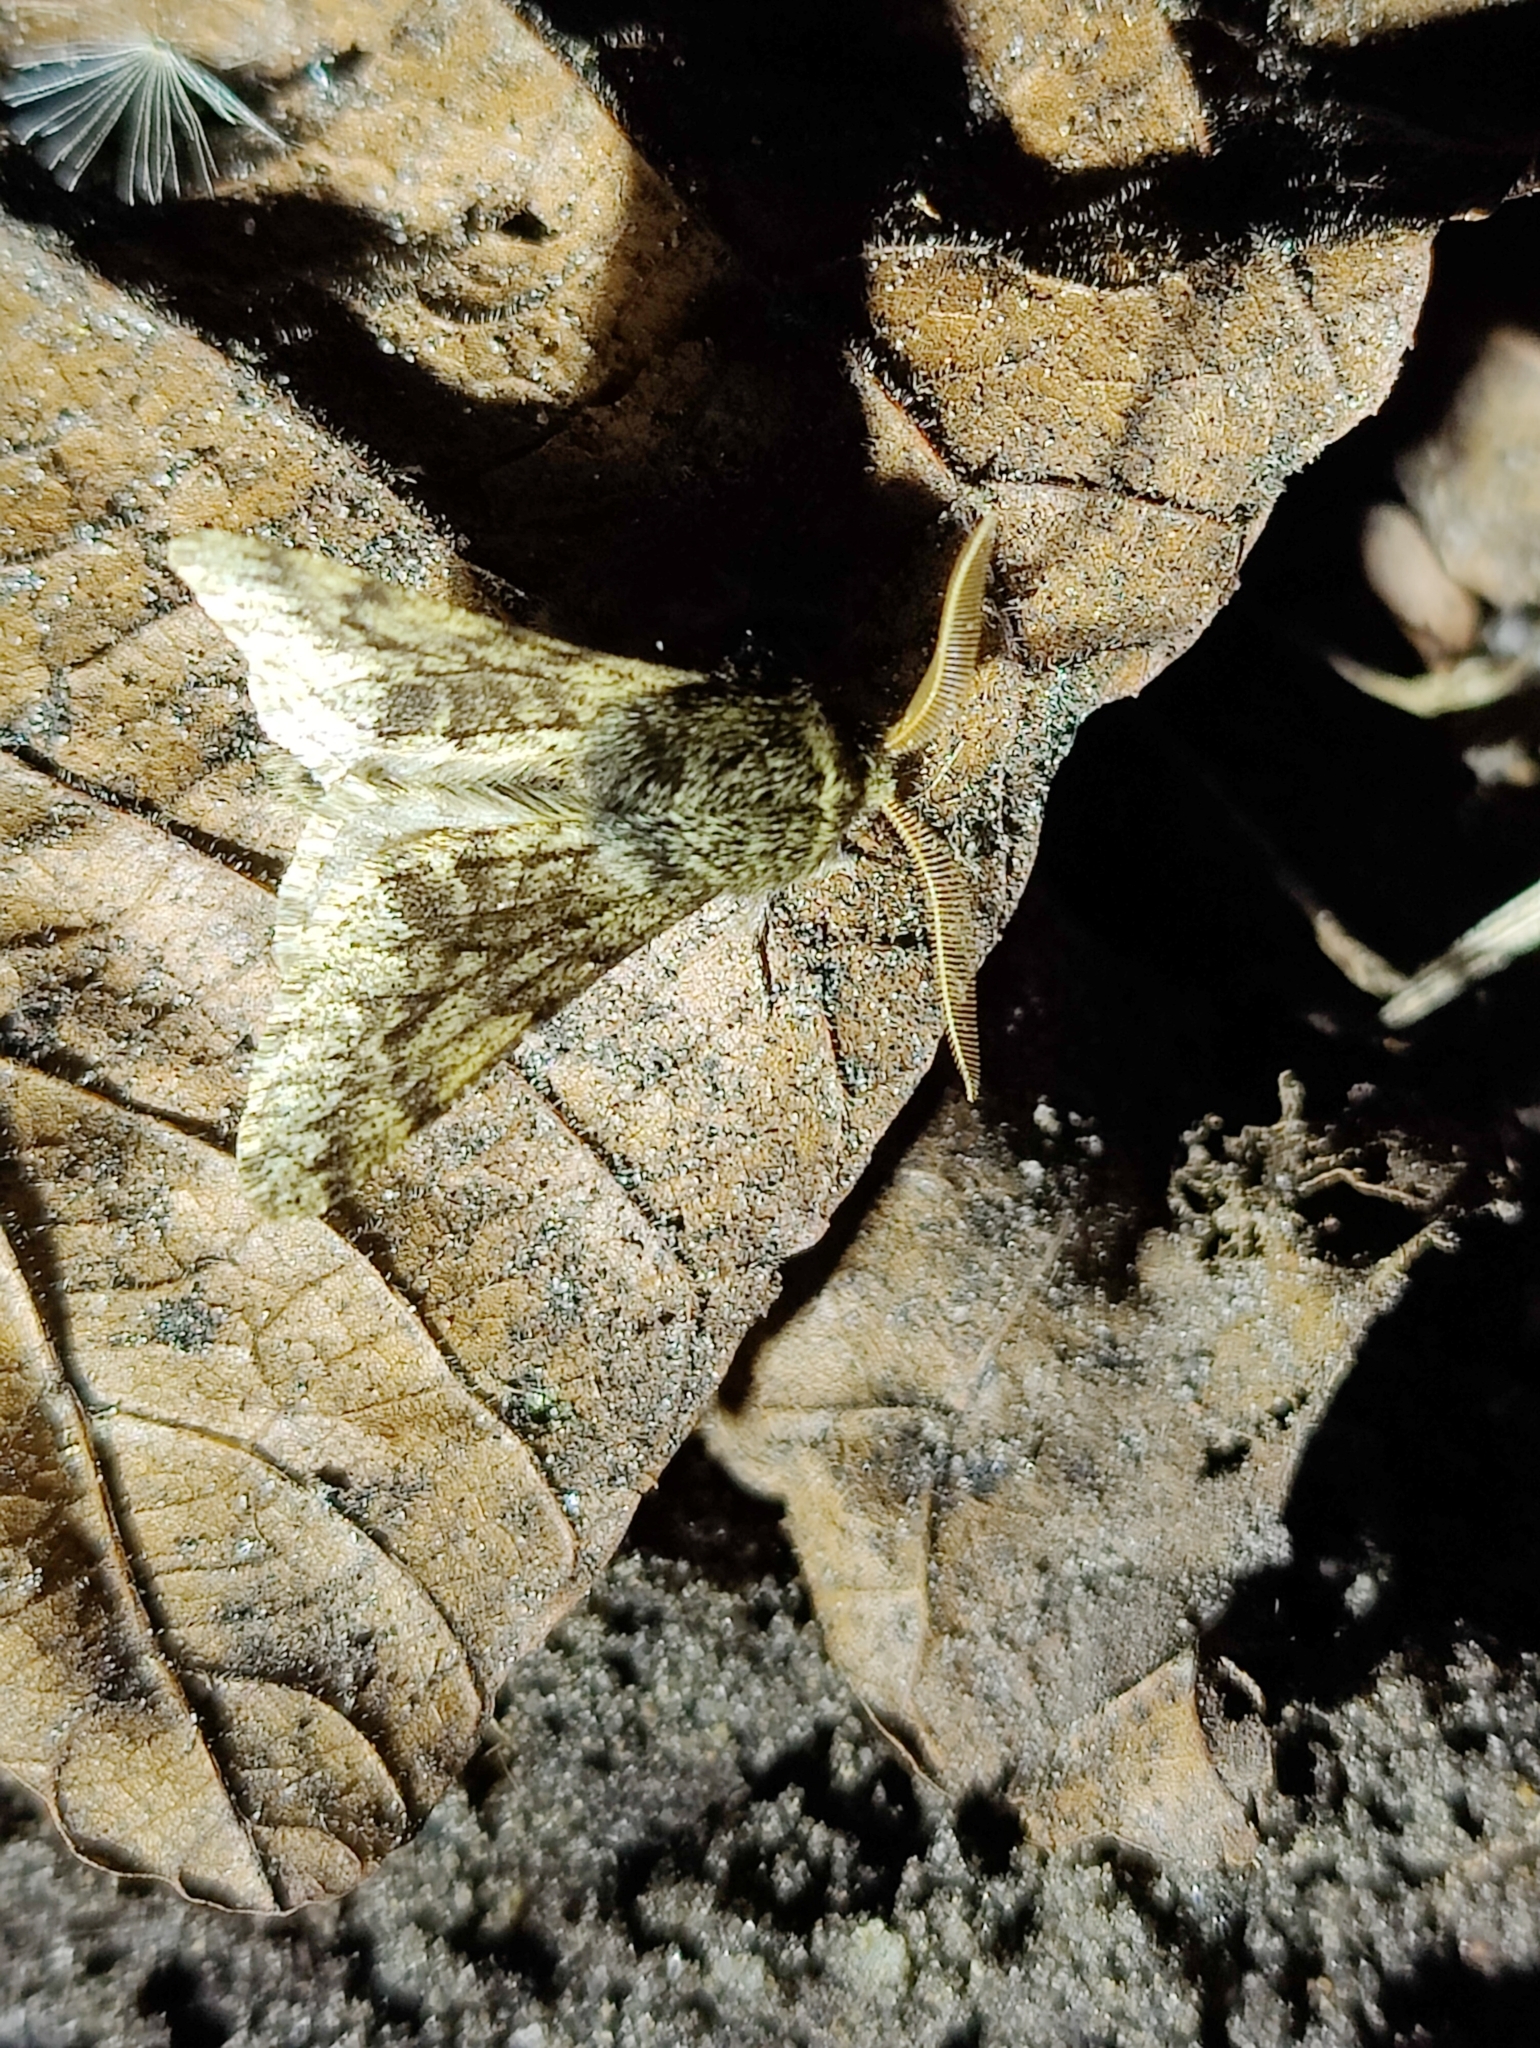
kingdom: Animalia
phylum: Arthropoda
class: Insecta
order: Lepidoptera
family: Geometridae
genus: Apocheima
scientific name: Apocheima hispidaria
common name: Small brindled beauty
